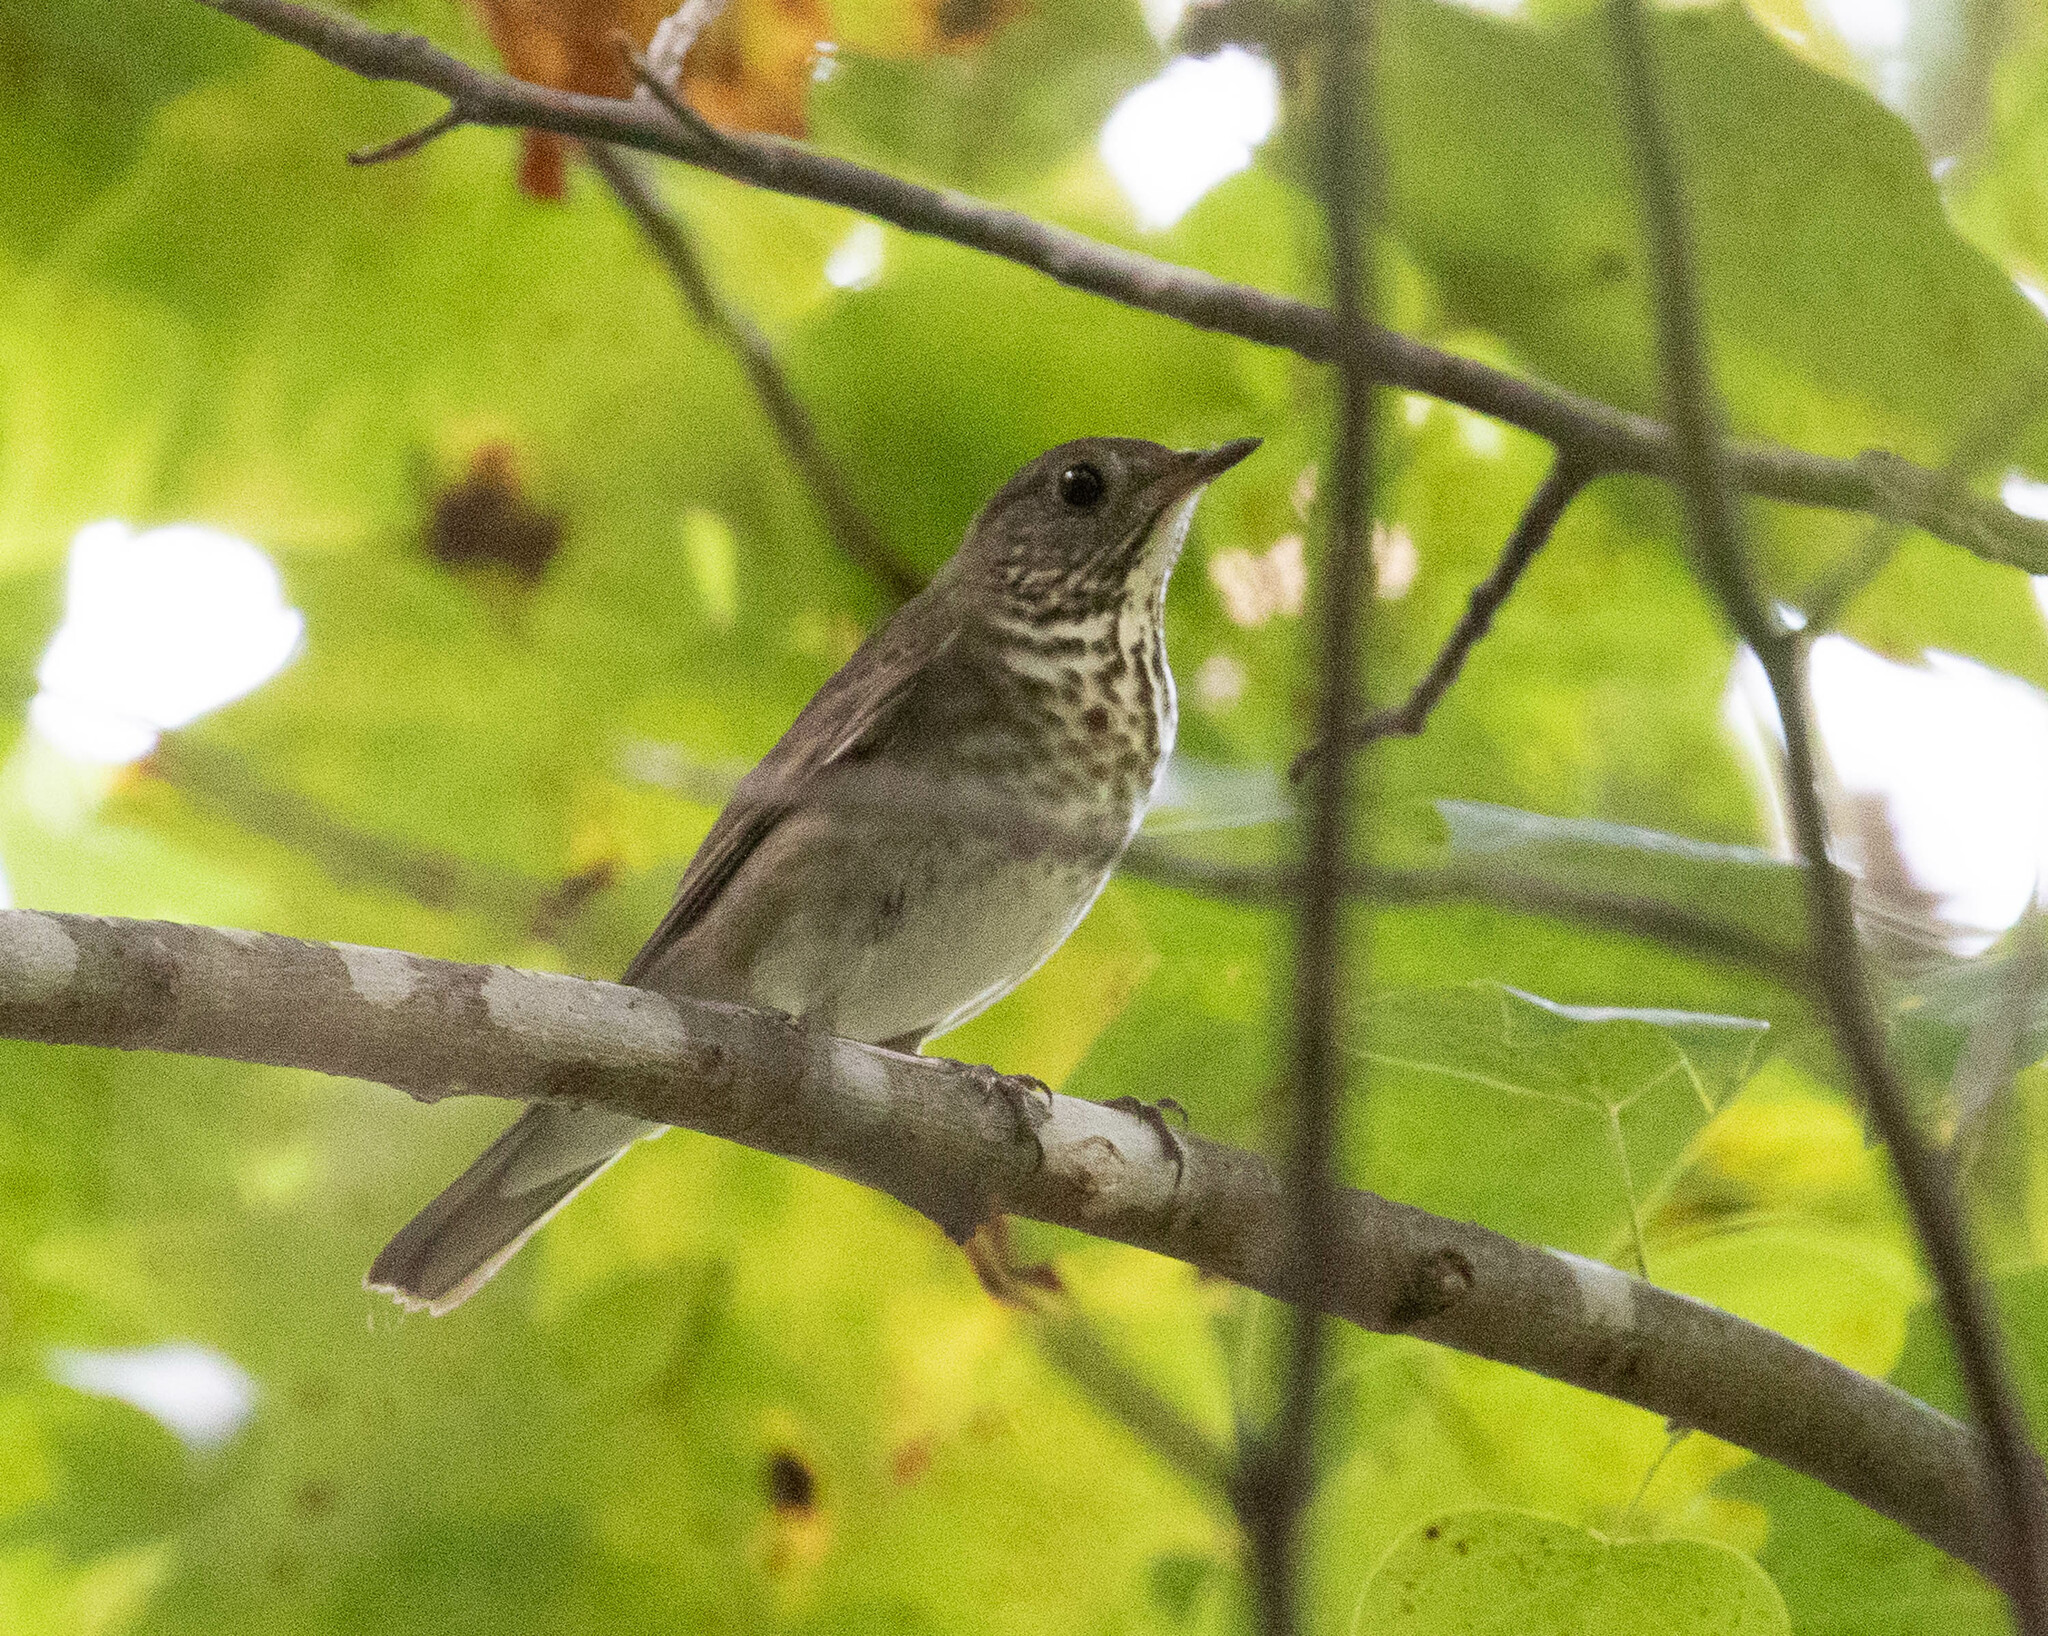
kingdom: Animalia
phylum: Chordata
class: Aves
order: Passeriformes
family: Turdidae
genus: Catharus
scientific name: Catharus minimus
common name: Grey-cheeked thrush
